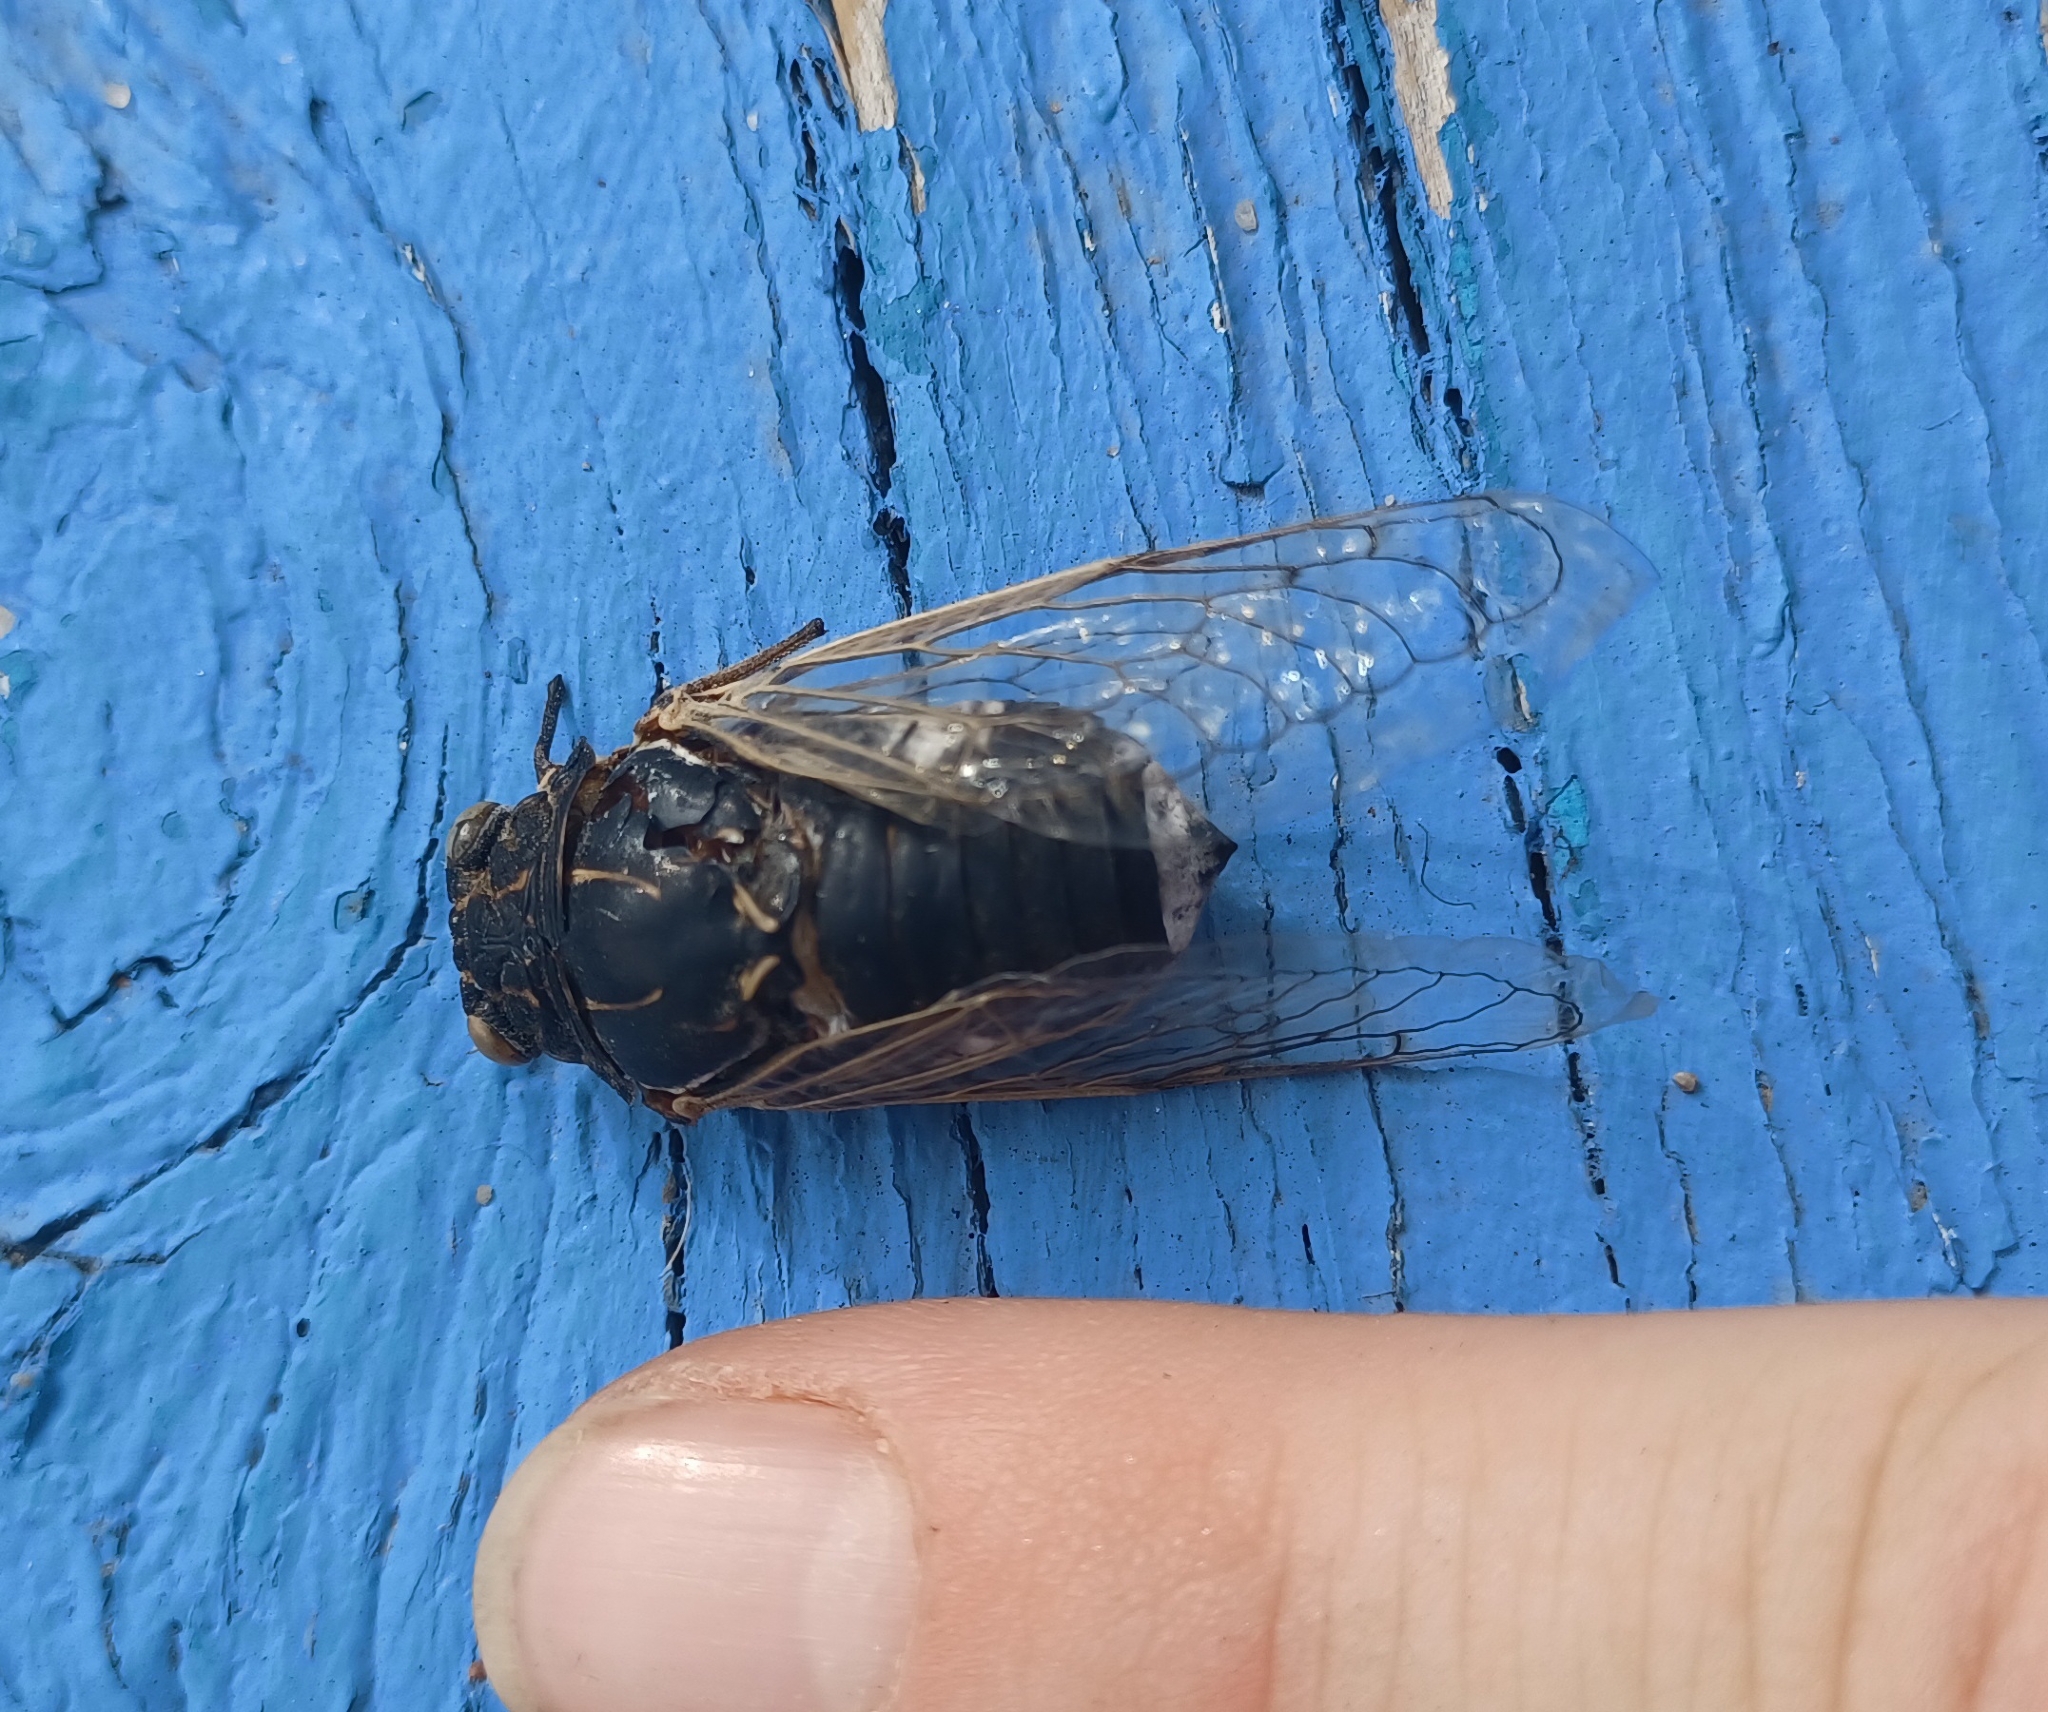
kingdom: Animalia
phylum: Arthropoda
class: Insecta
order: Hemiptera
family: Cicadidae
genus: Cacama
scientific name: Cacama valvata
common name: Cactus dodger
